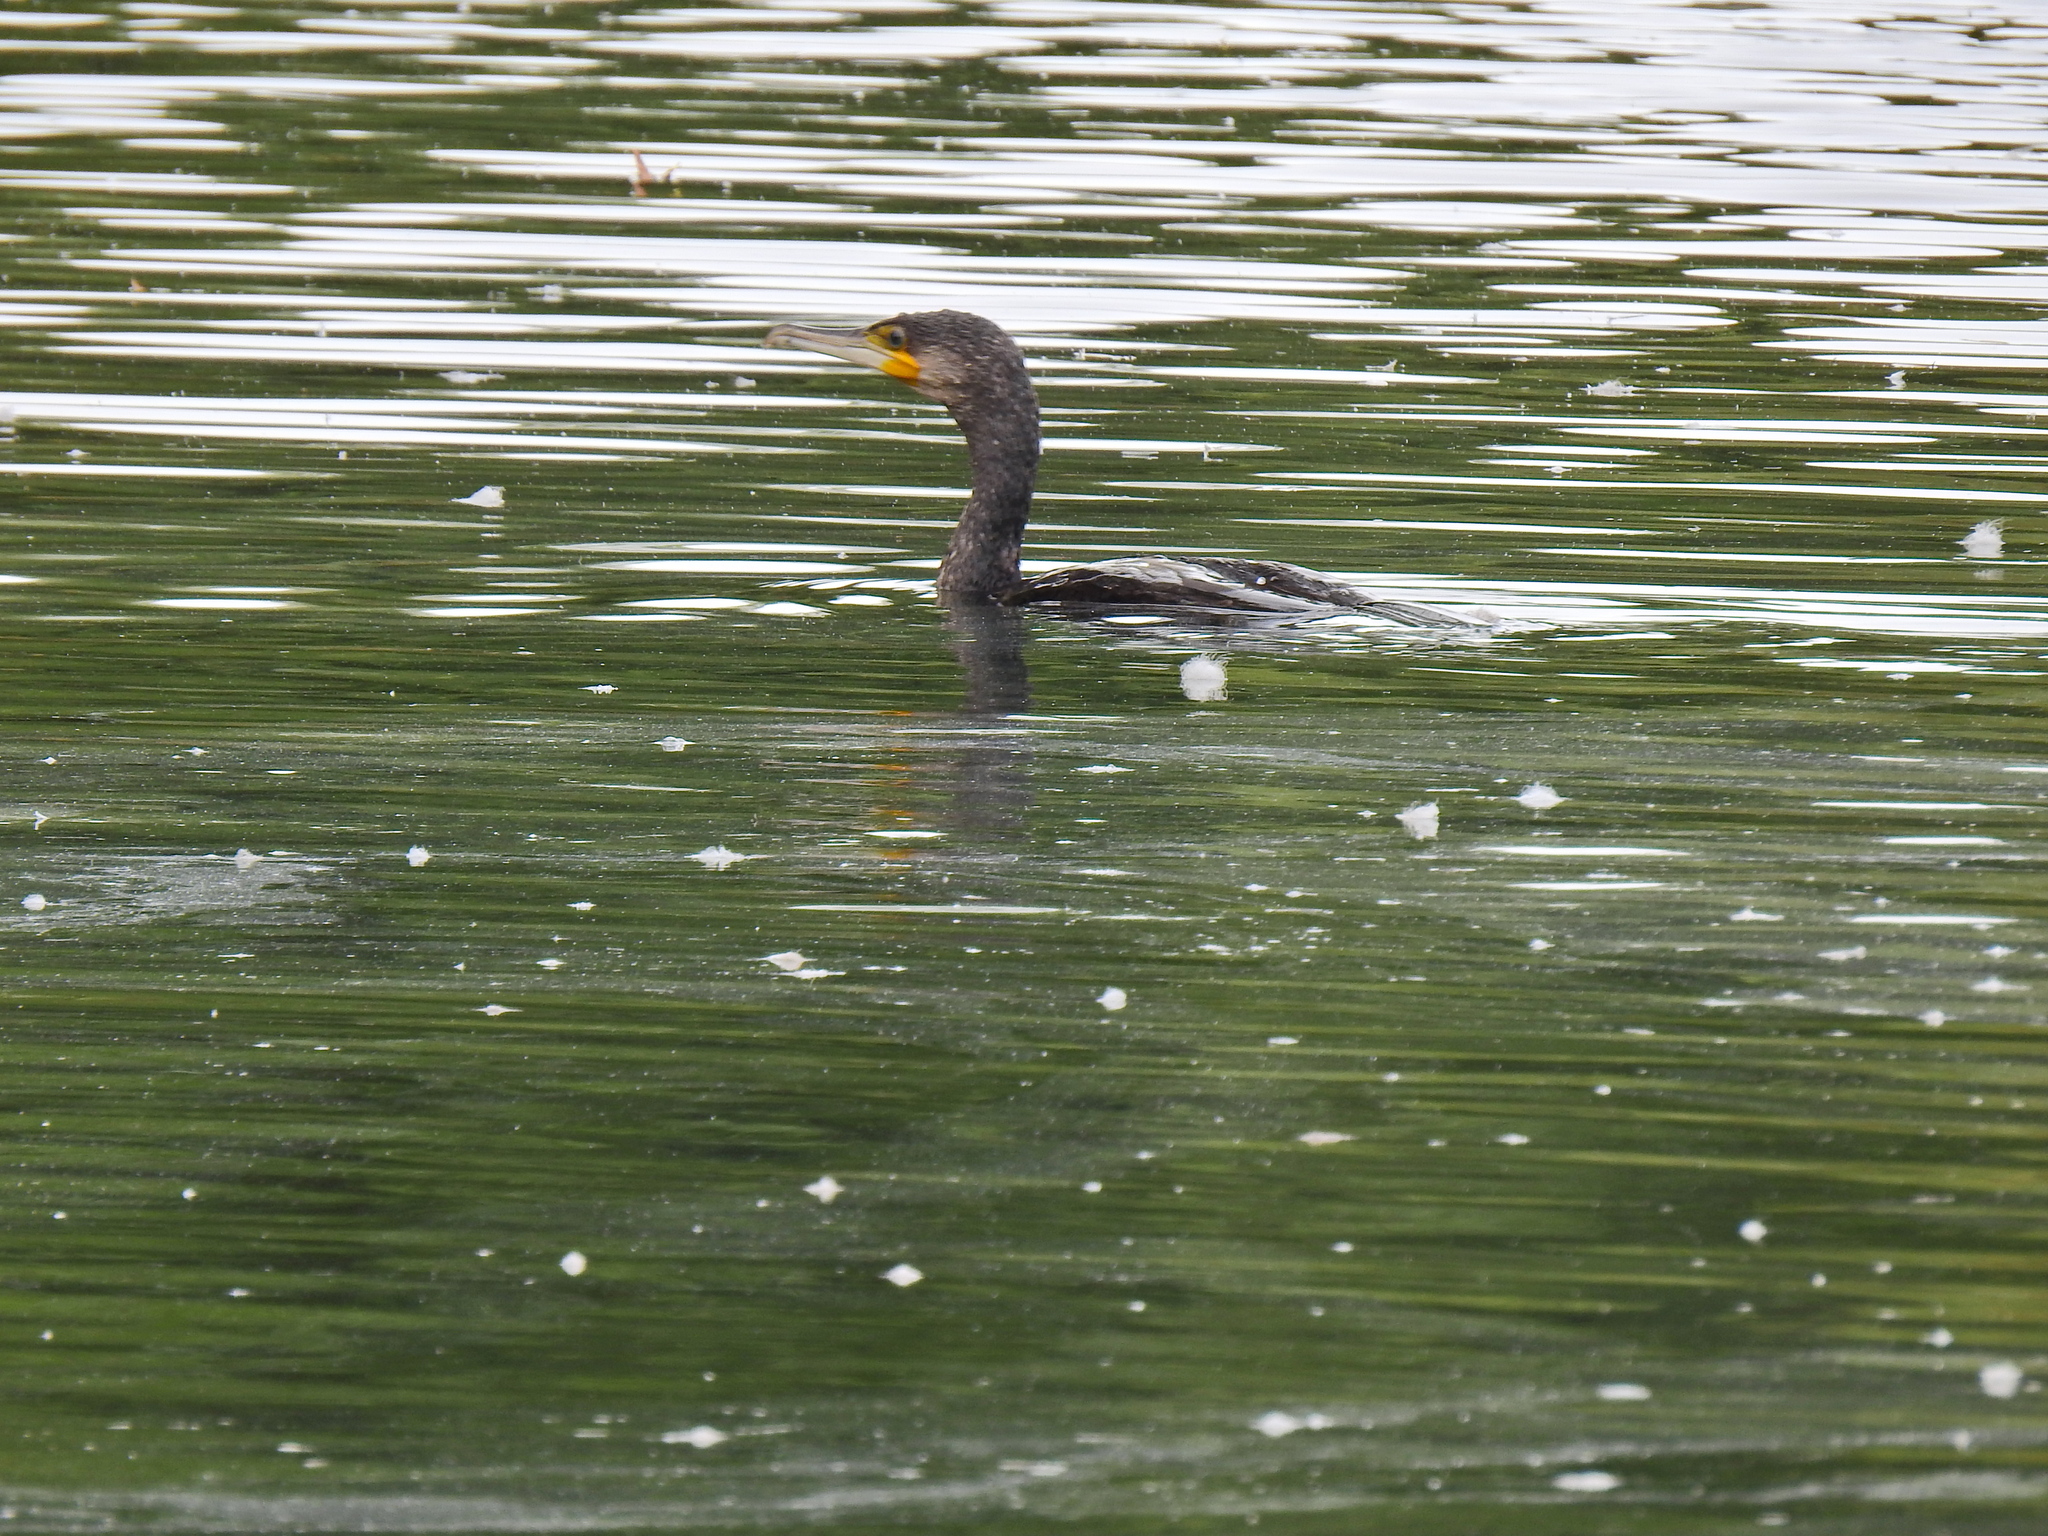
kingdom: Animalia
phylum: Chordata
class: Aves
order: Suliformes
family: Phalacrocoracidae
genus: Phalacrocorax
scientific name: Phalacrocorax carbo
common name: Great cormorant
